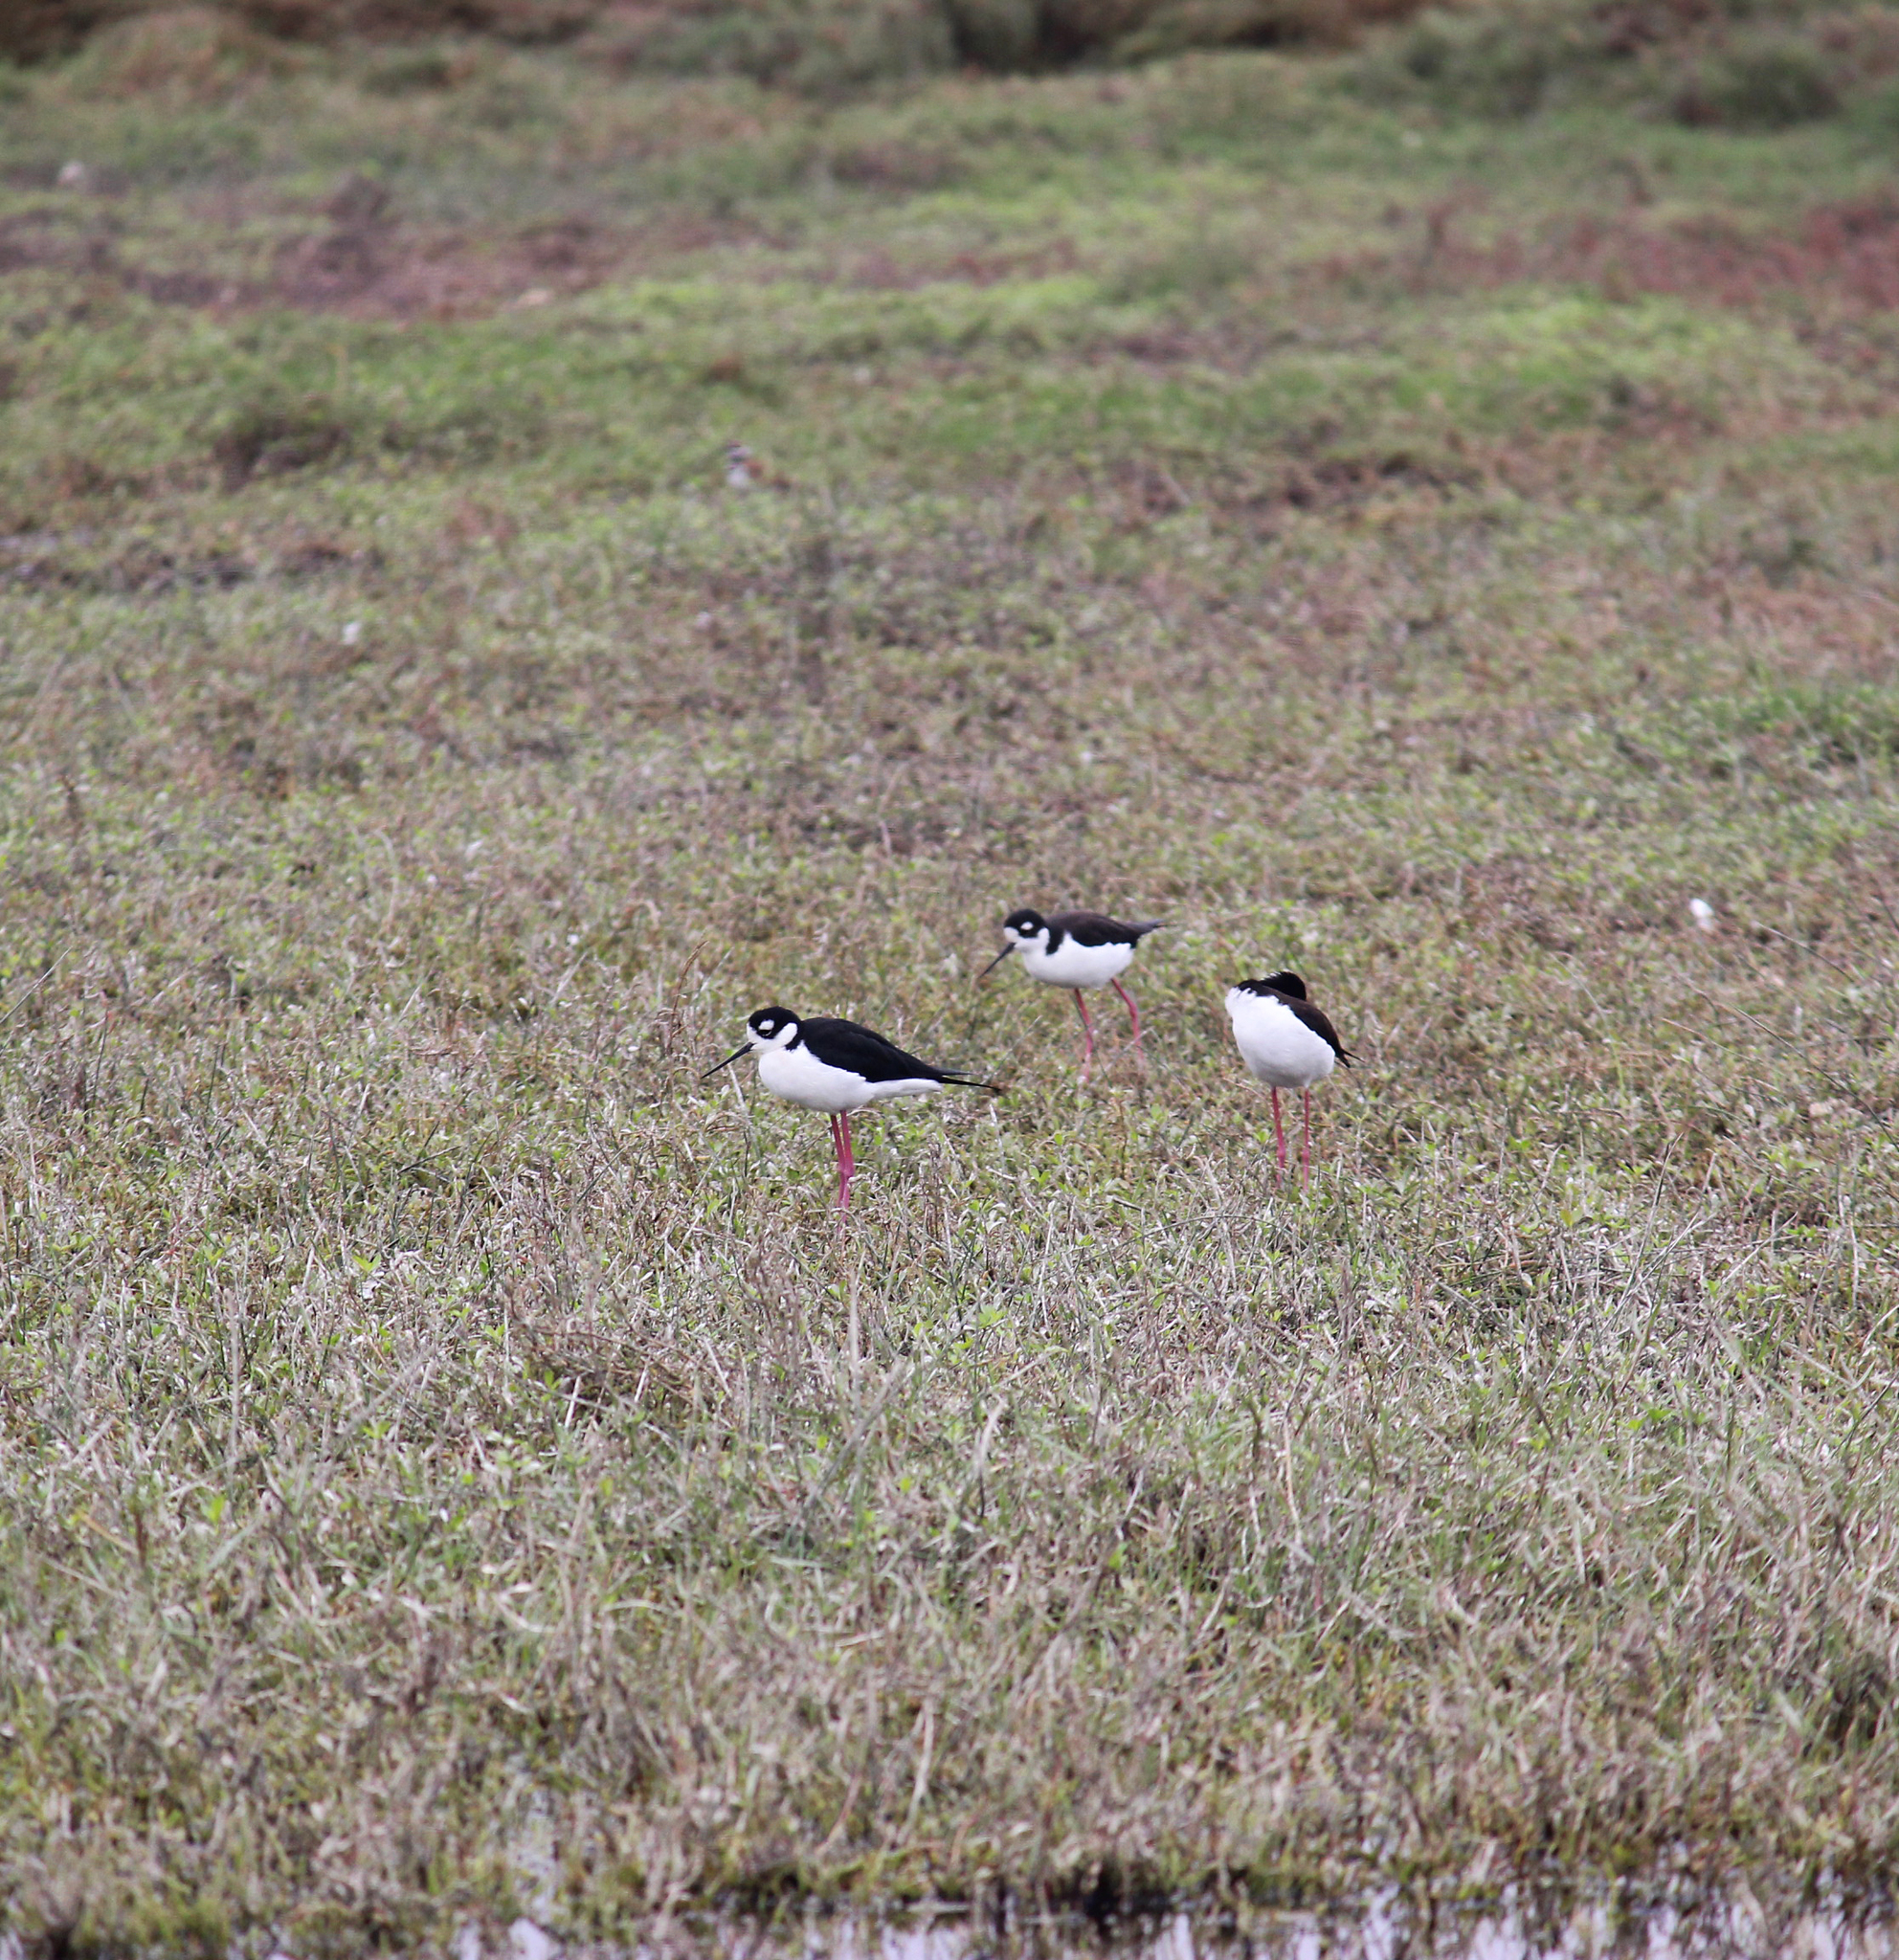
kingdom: Animalia
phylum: Chordata
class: Aves
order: Charadriiformes
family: Recurvirostridae
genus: Himantopus
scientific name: Himantopus mexicanus
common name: Black-necked stilt
